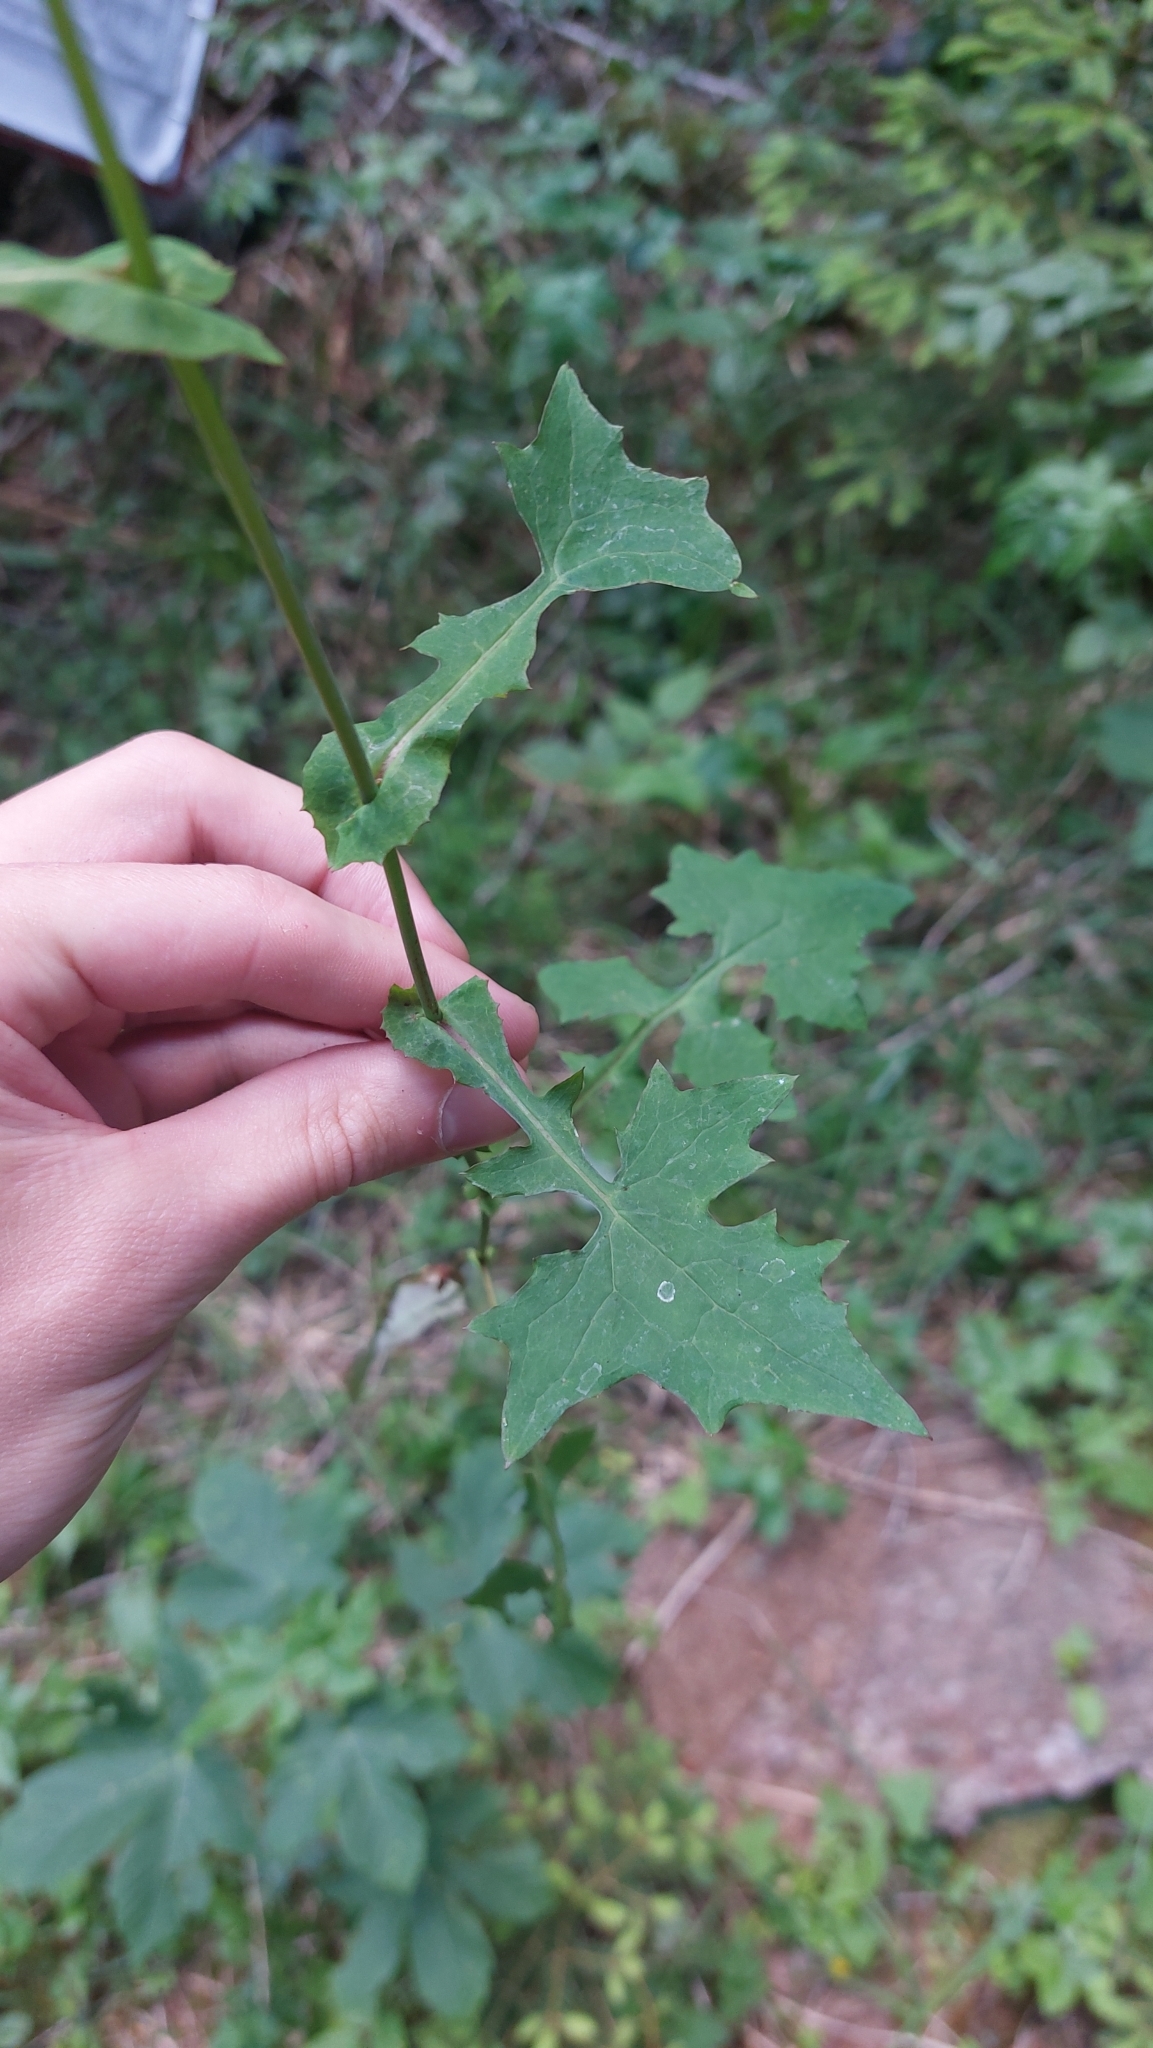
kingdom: Plantae
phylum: Tracheophyta
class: Magnoliopsida
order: Asterales
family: Asteraceae
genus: Mycelis
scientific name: Mycelis muralis
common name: Wall lettuce
